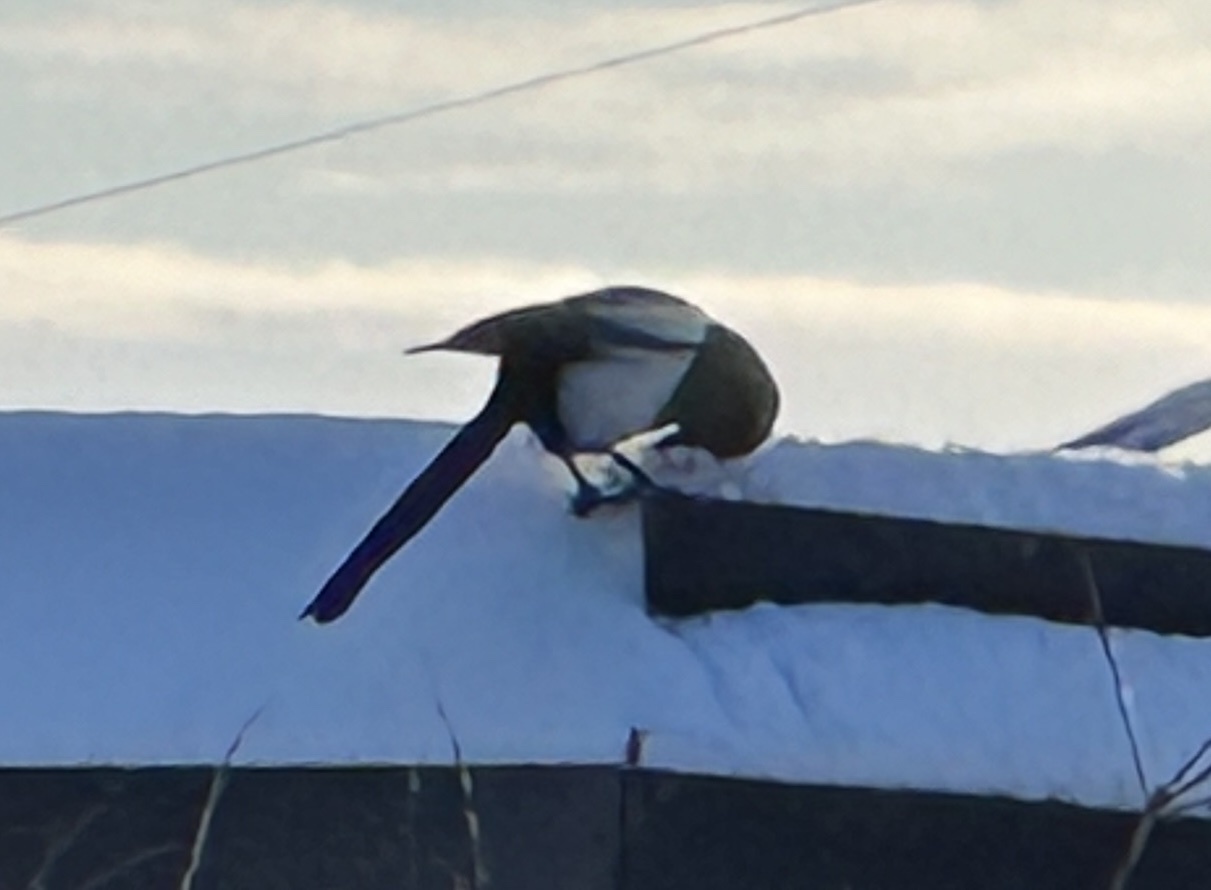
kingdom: Animalia
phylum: Chordata
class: Aves
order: Passeriformes
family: Corvidae
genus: Pica
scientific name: Pica pica
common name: Eurasian magpie
